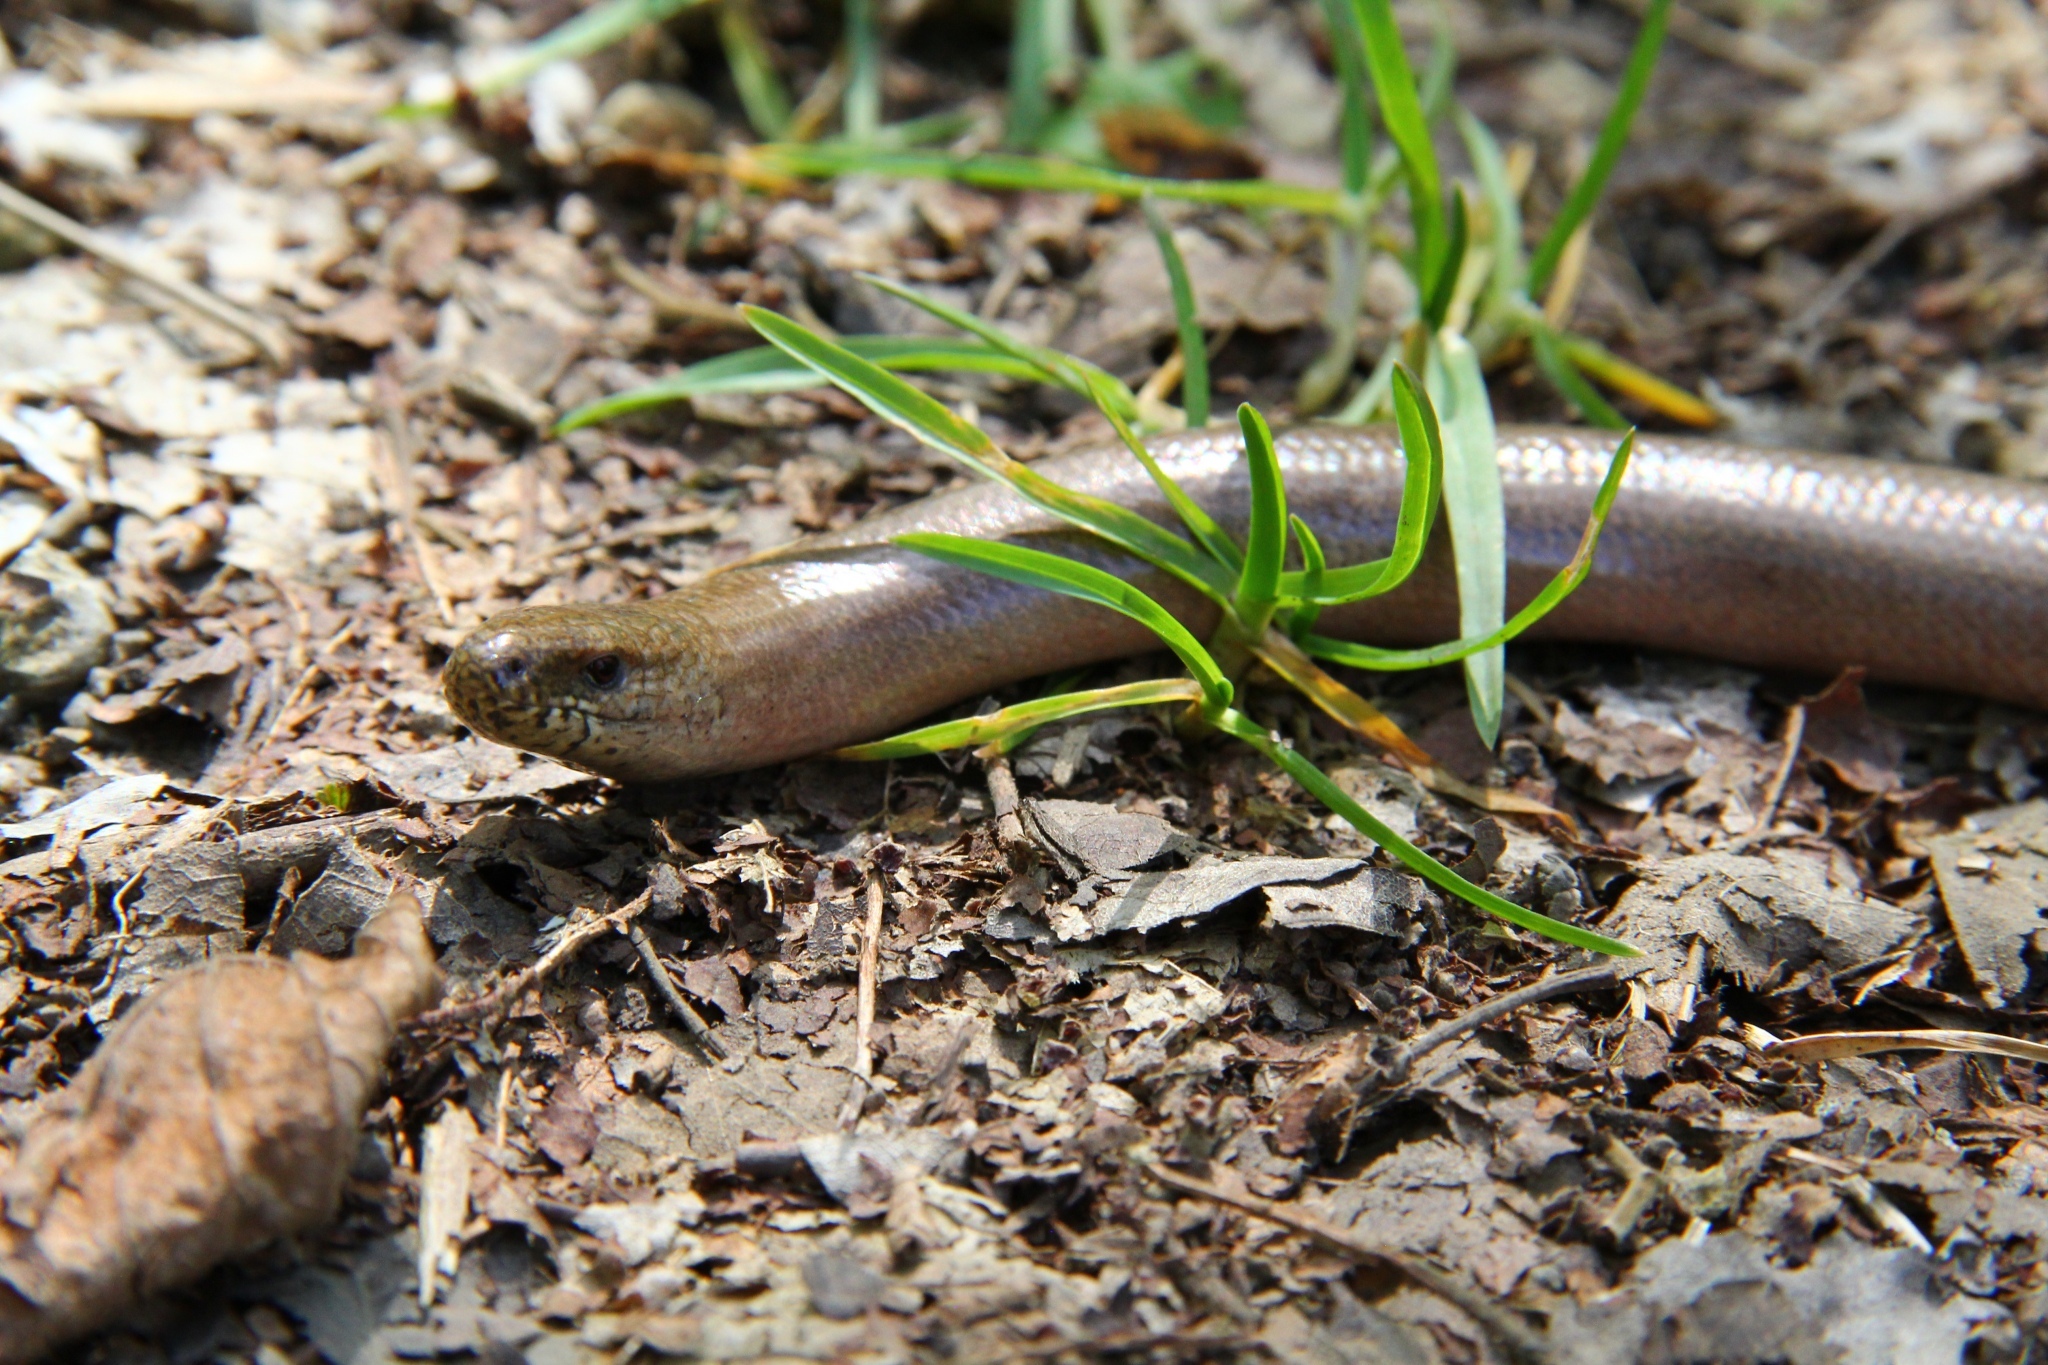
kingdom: Animalia
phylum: Chordata
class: Squamata
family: Anguidae
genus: Anguis
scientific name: Anguis fragilis
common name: Slow worm
